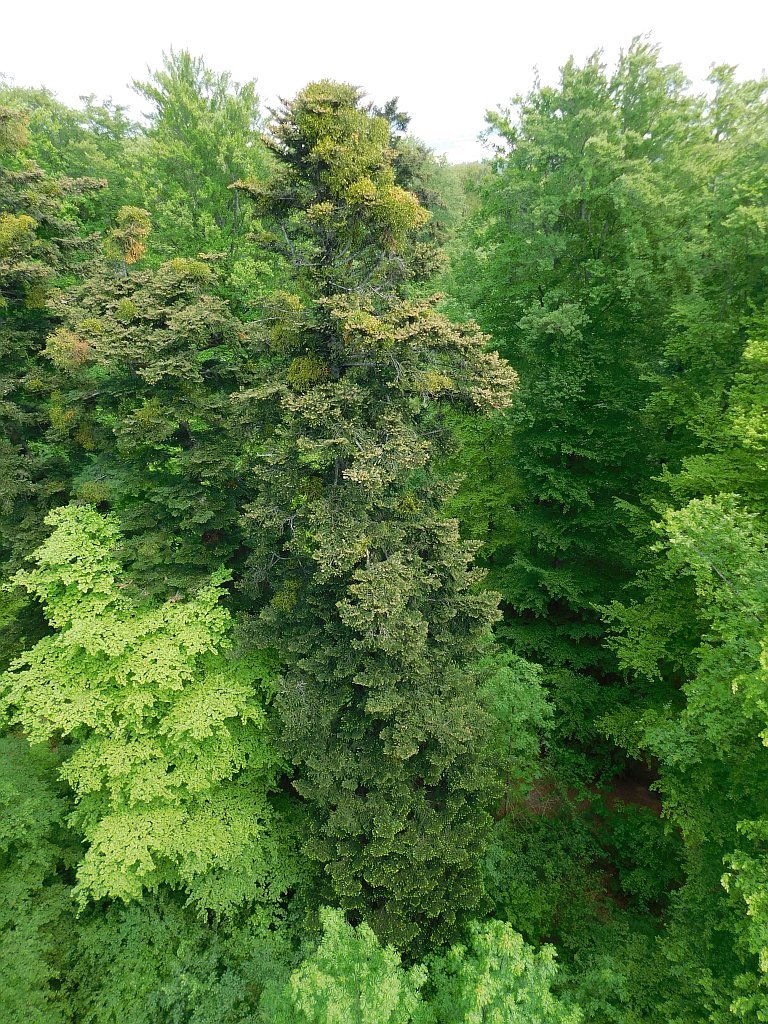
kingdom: Plantae
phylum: Tracheophyta
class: Pinopsida
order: Pinales
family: Pinaceae
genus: Abies
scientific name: Abies alba
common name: Silver fir
